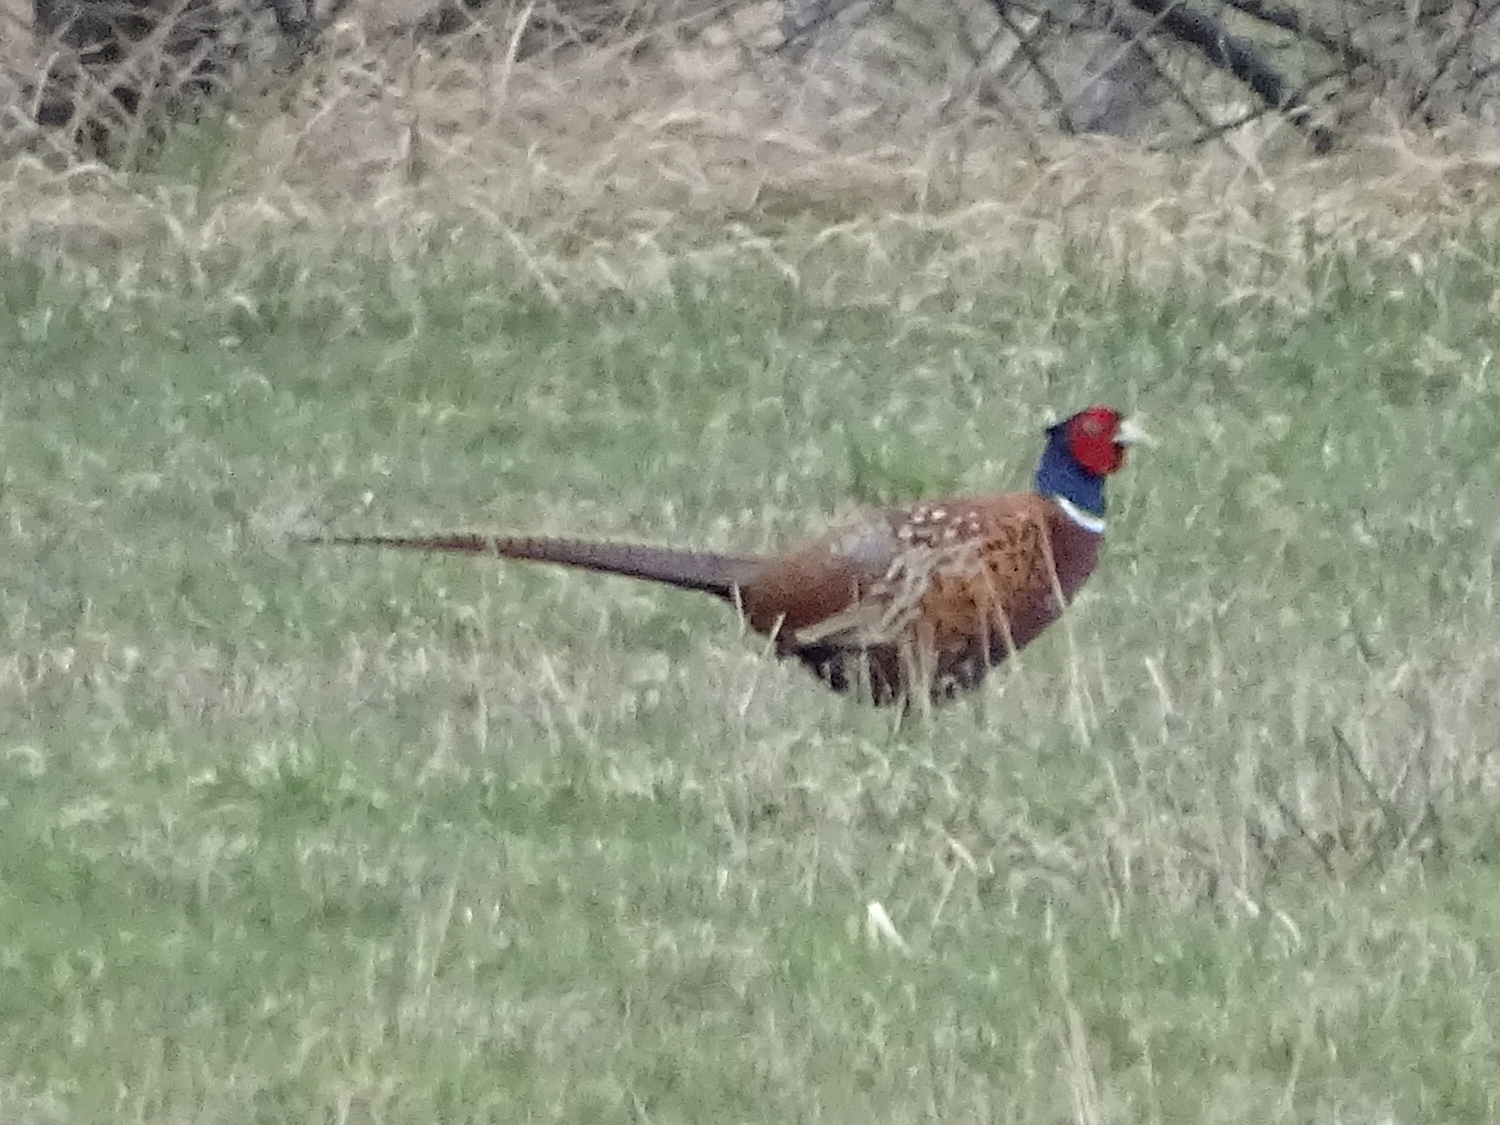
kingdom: Animalia
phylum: Chordata
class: Aves
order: Galliformes
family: Phasianidae
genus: Phasianus
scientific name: Phasianus colchicus
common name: Common pheasant
